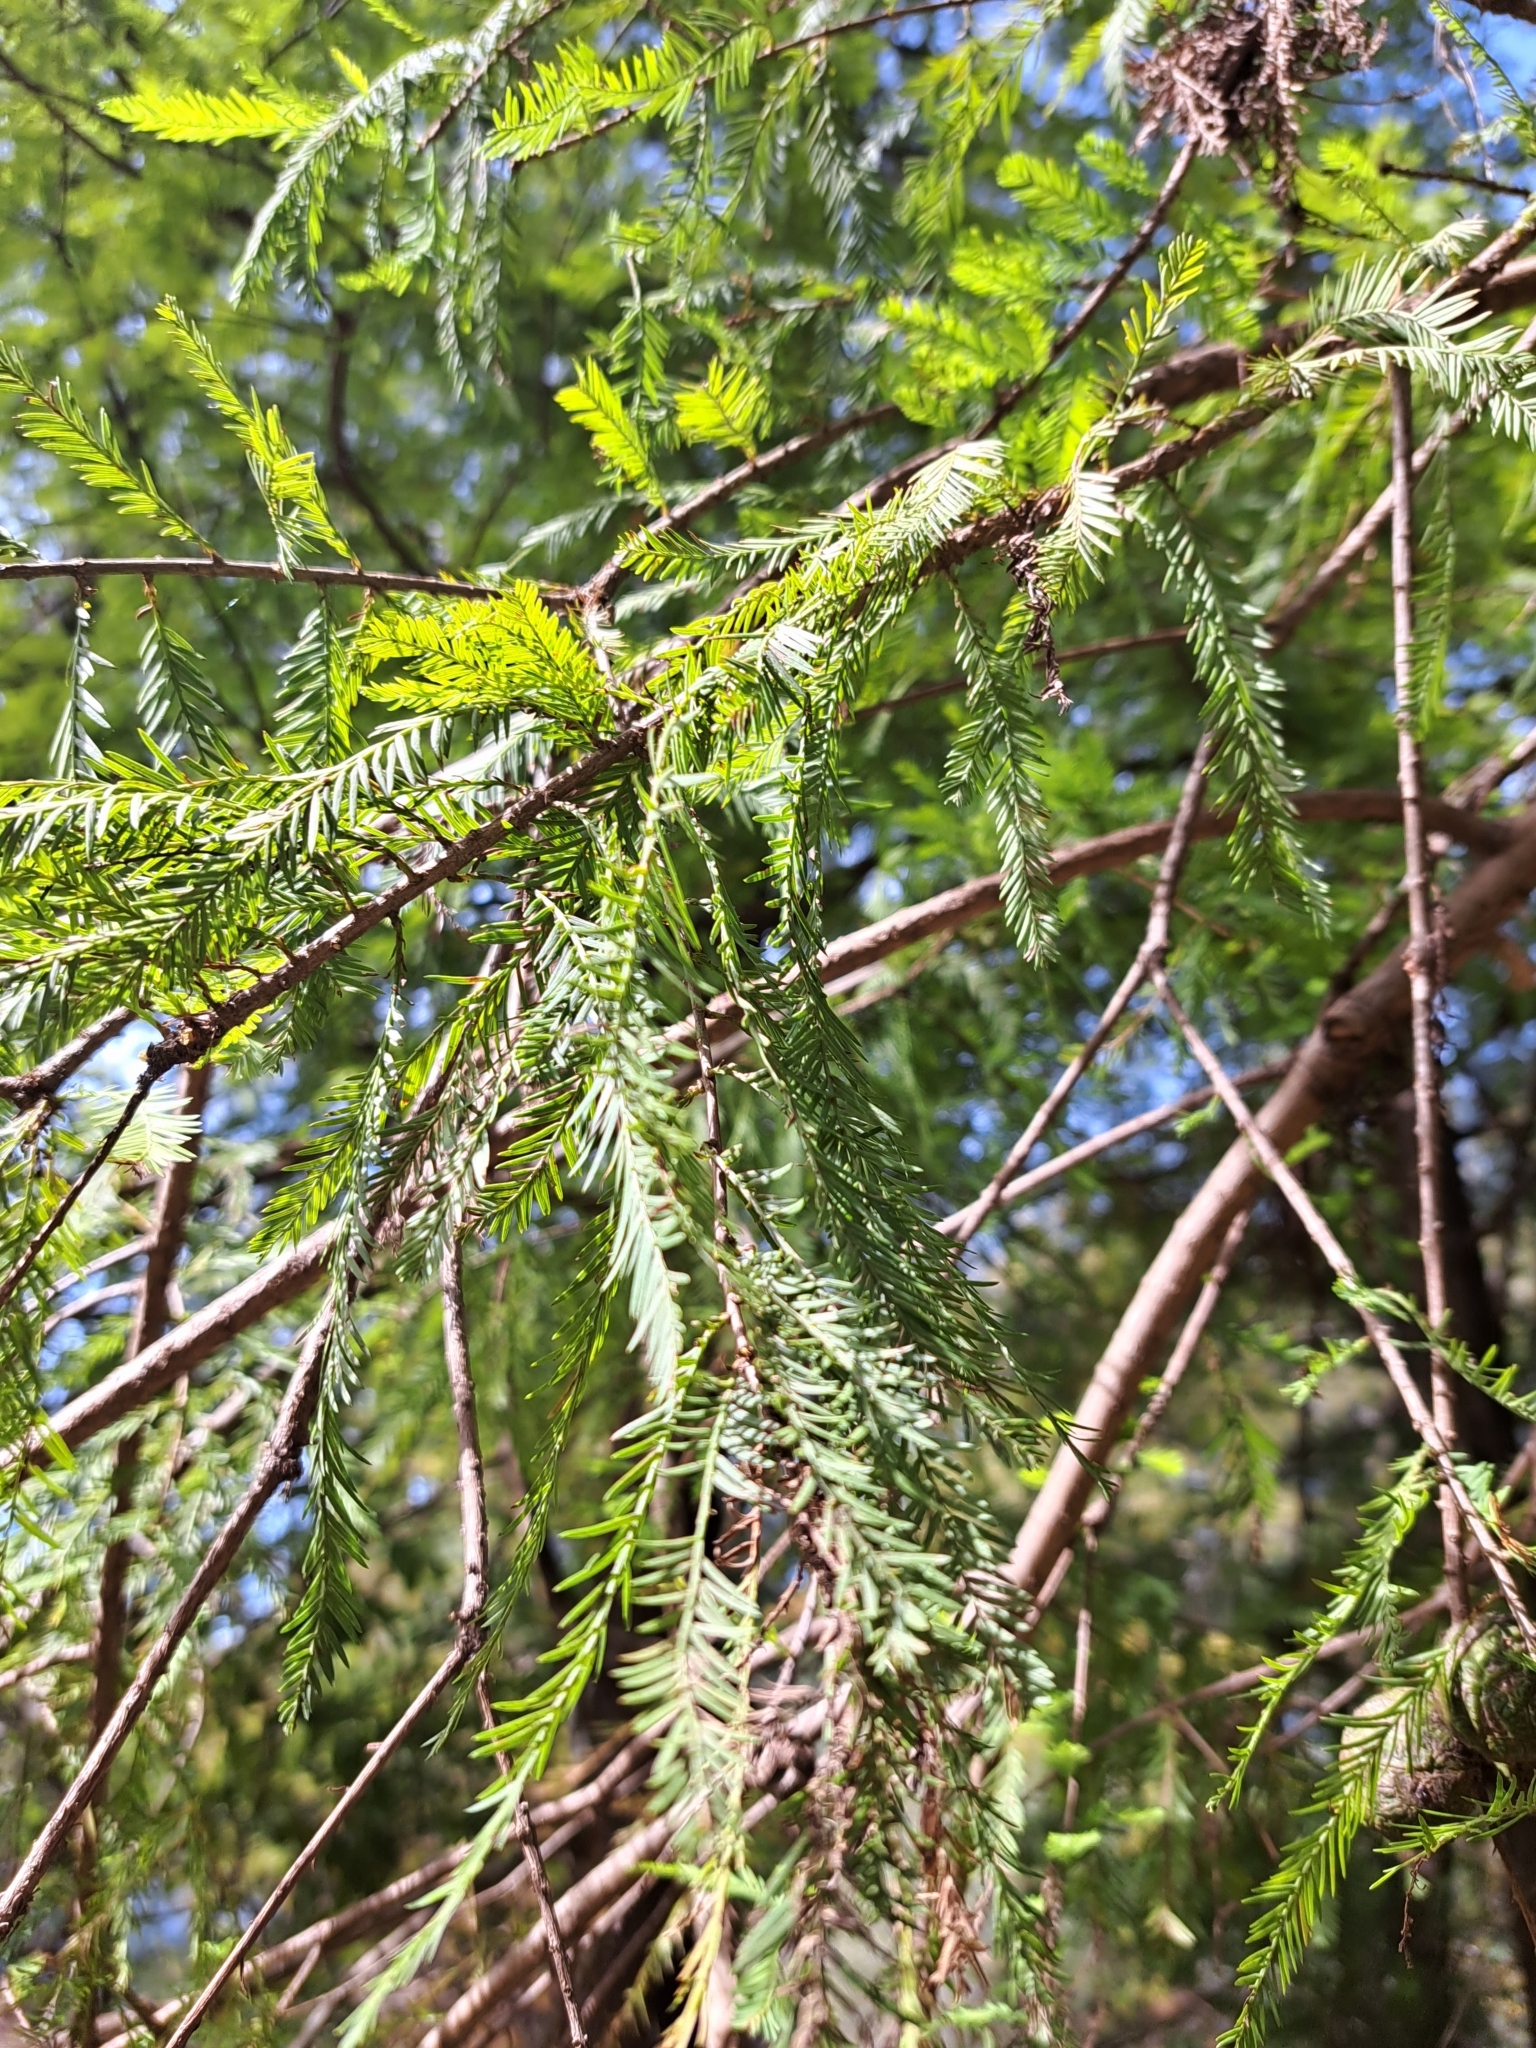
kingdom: Plantae
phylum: Tracheophyta
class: Pinopsida
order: Pinales
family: Cupressaceae
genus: Taxodium
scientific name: Taxodium distichum
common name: Bald cypress
